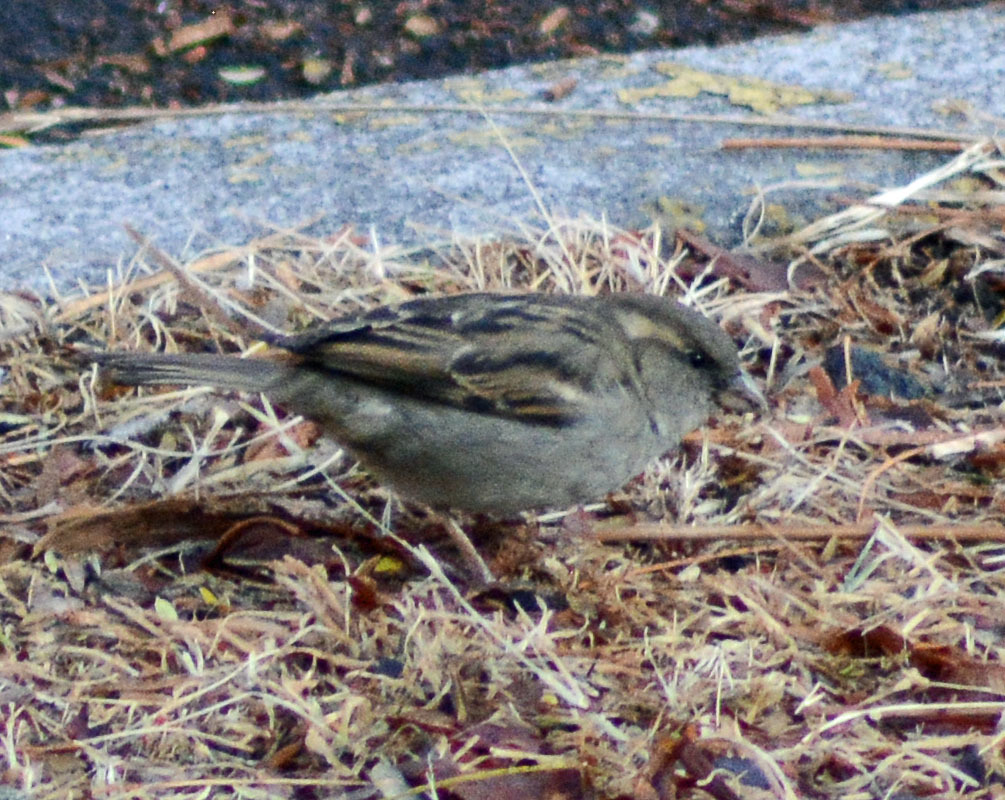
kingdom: Animalia
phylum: Chordata
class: Aves
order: Passeriformes
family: Passeridae
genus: Passer
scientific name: Passer domesticus
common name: House sparrow
